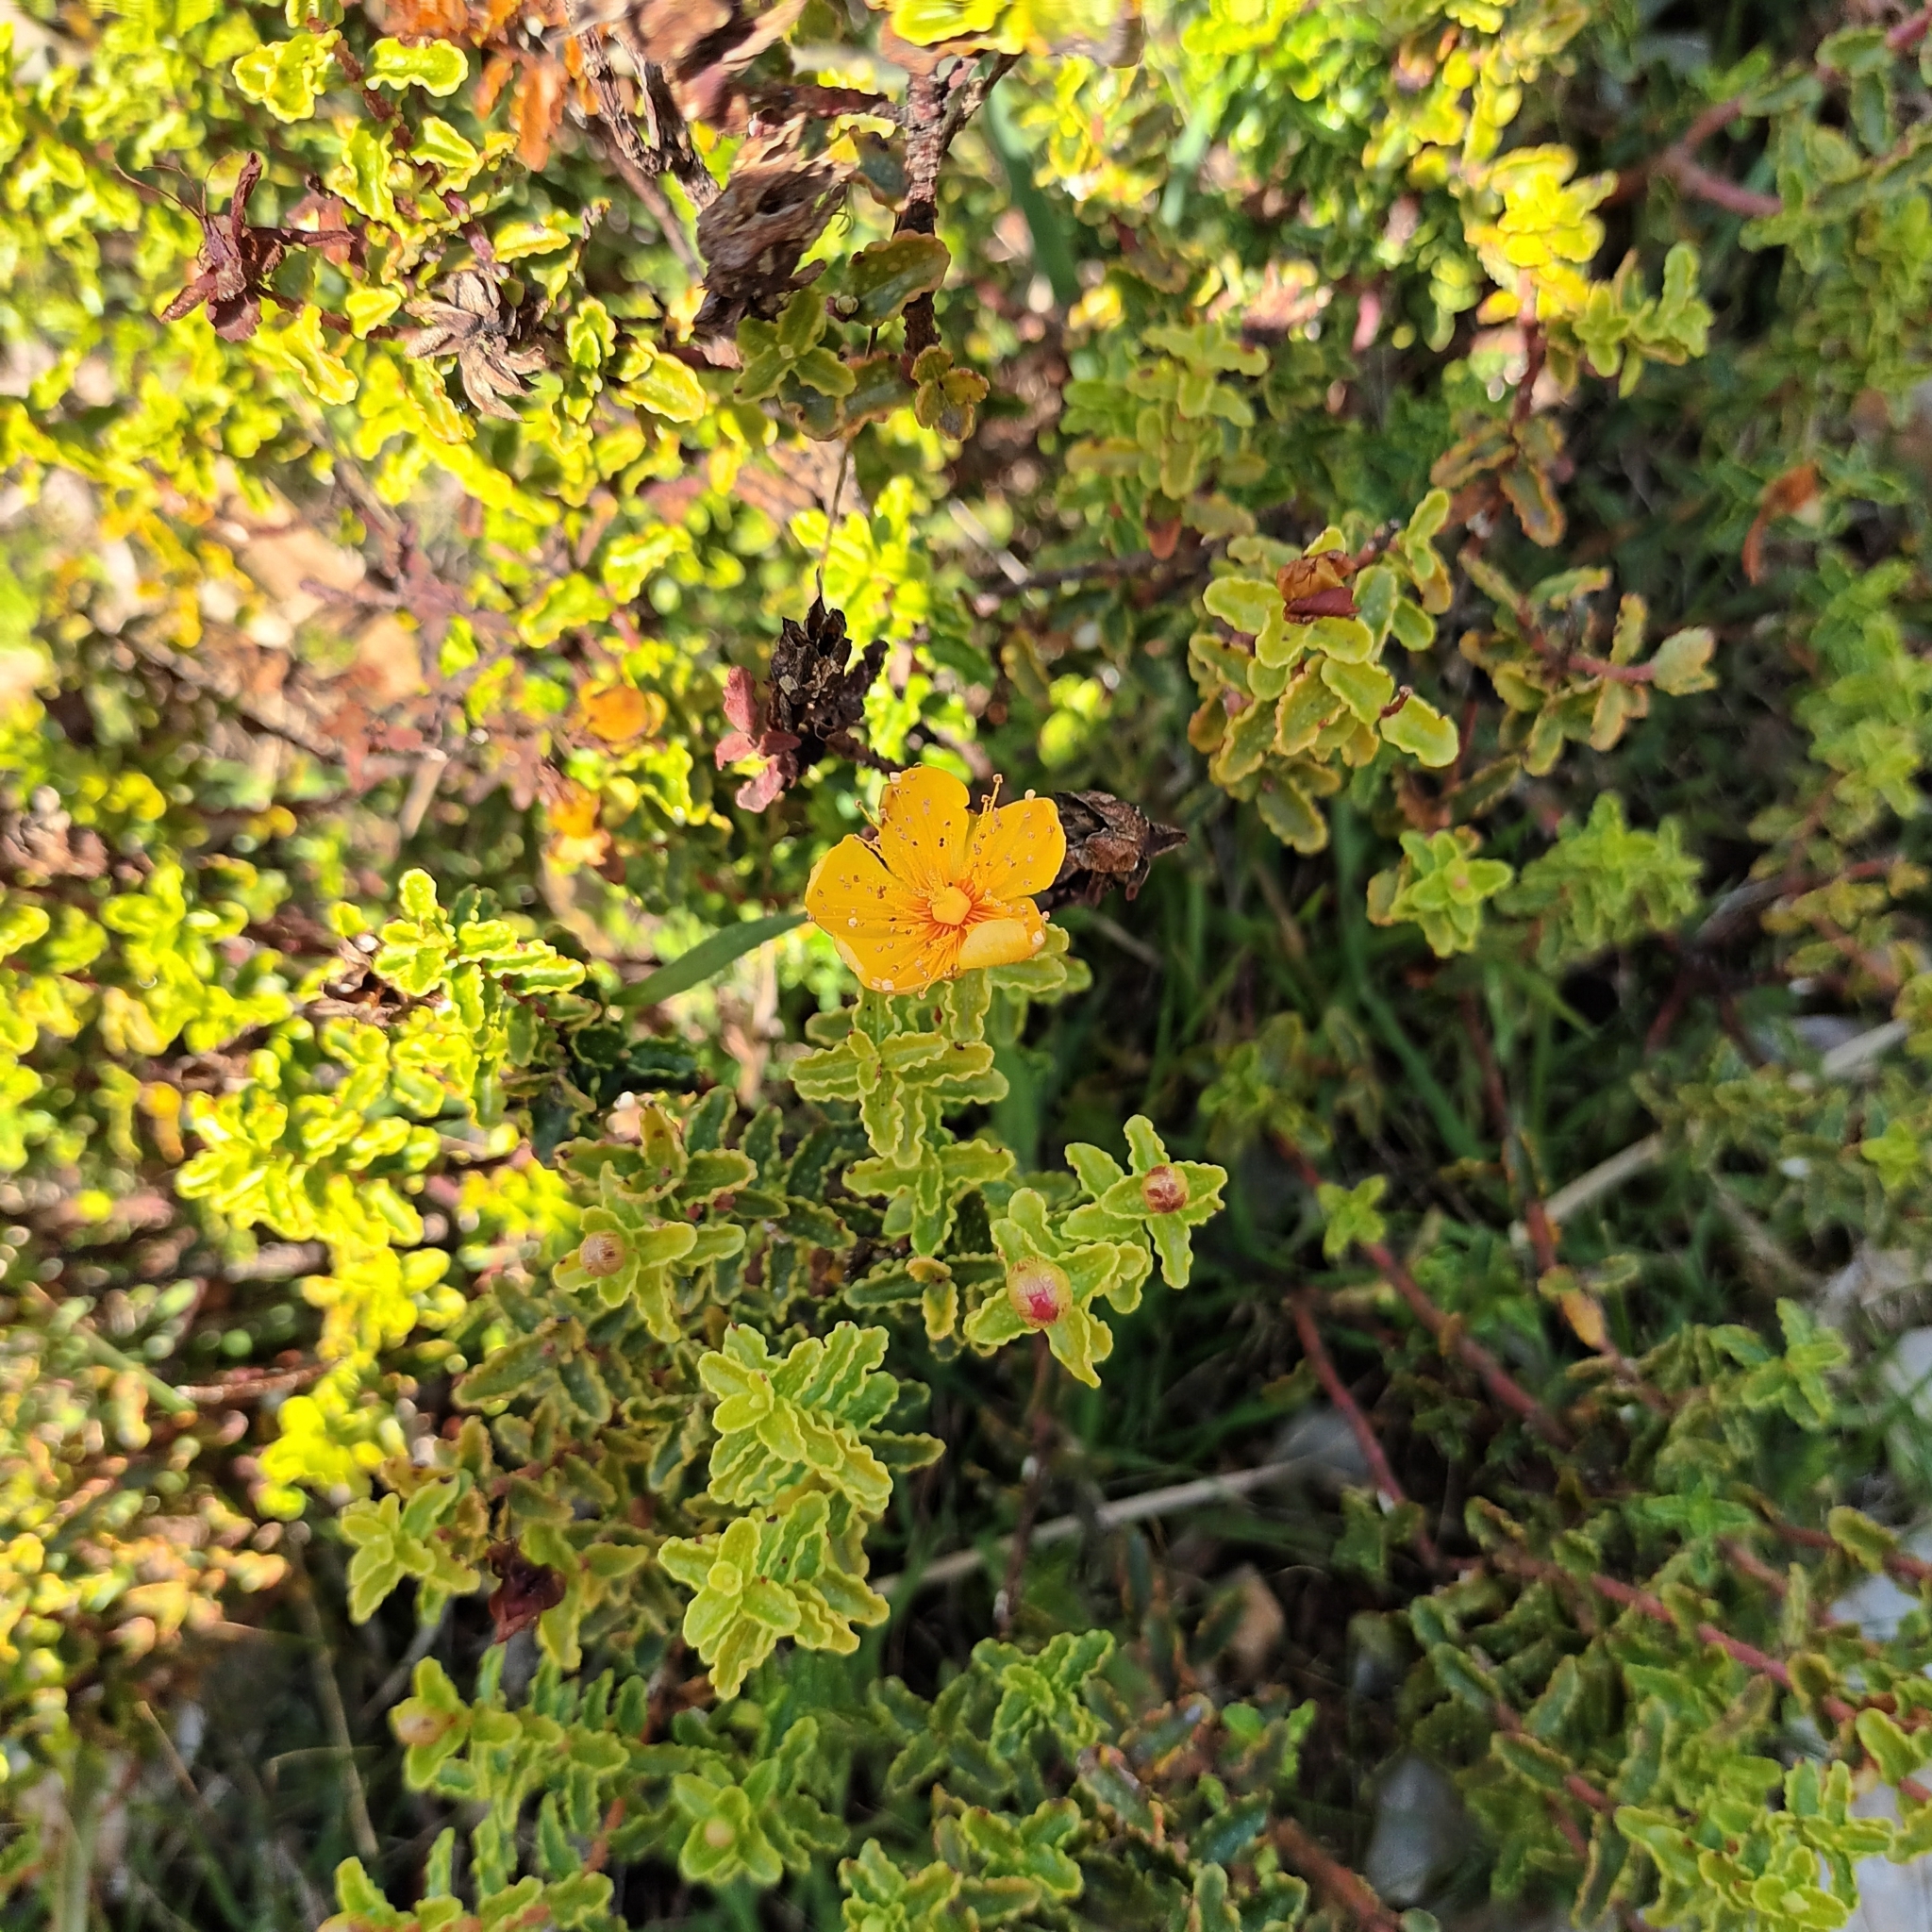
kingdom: Plantae
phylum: Tracheophyta
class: Magnoliopsida
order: Malpighiales
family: Hypericaceae
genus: Hypericum
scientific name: Hypericum balearicum
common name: Majorca st john's wort
